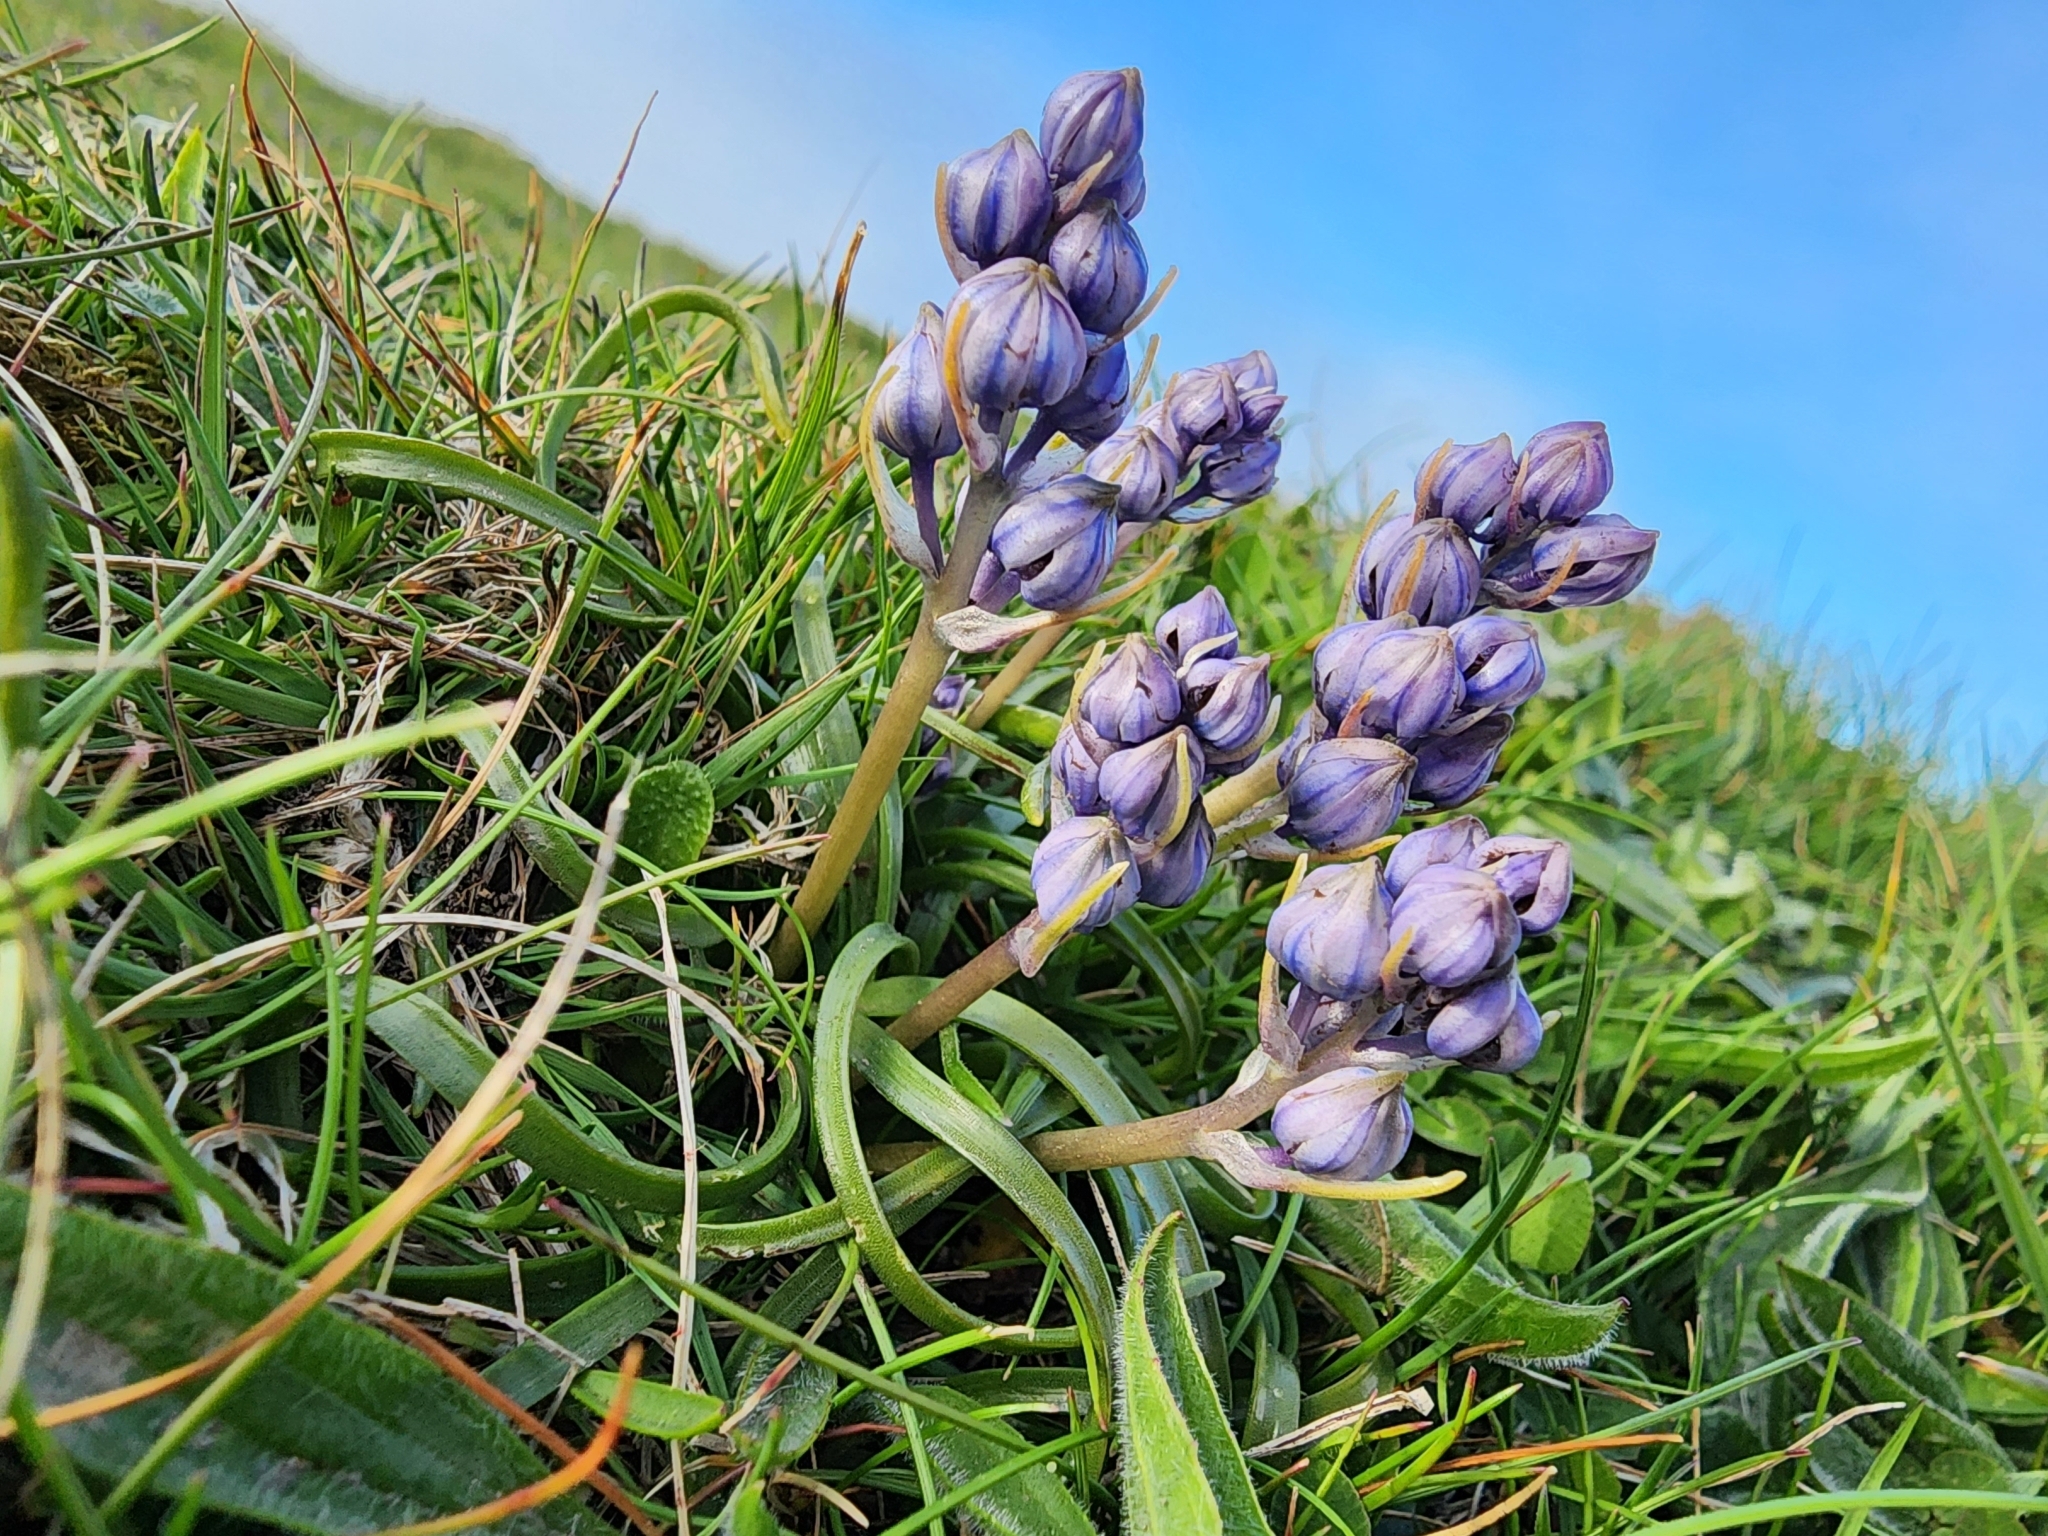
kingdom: Plantae
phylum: Tracheophyta
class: Liliopsida
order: Asparagales
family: Asparagaceae
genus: Scilla
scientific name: Scilla verna
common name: Spring squill
